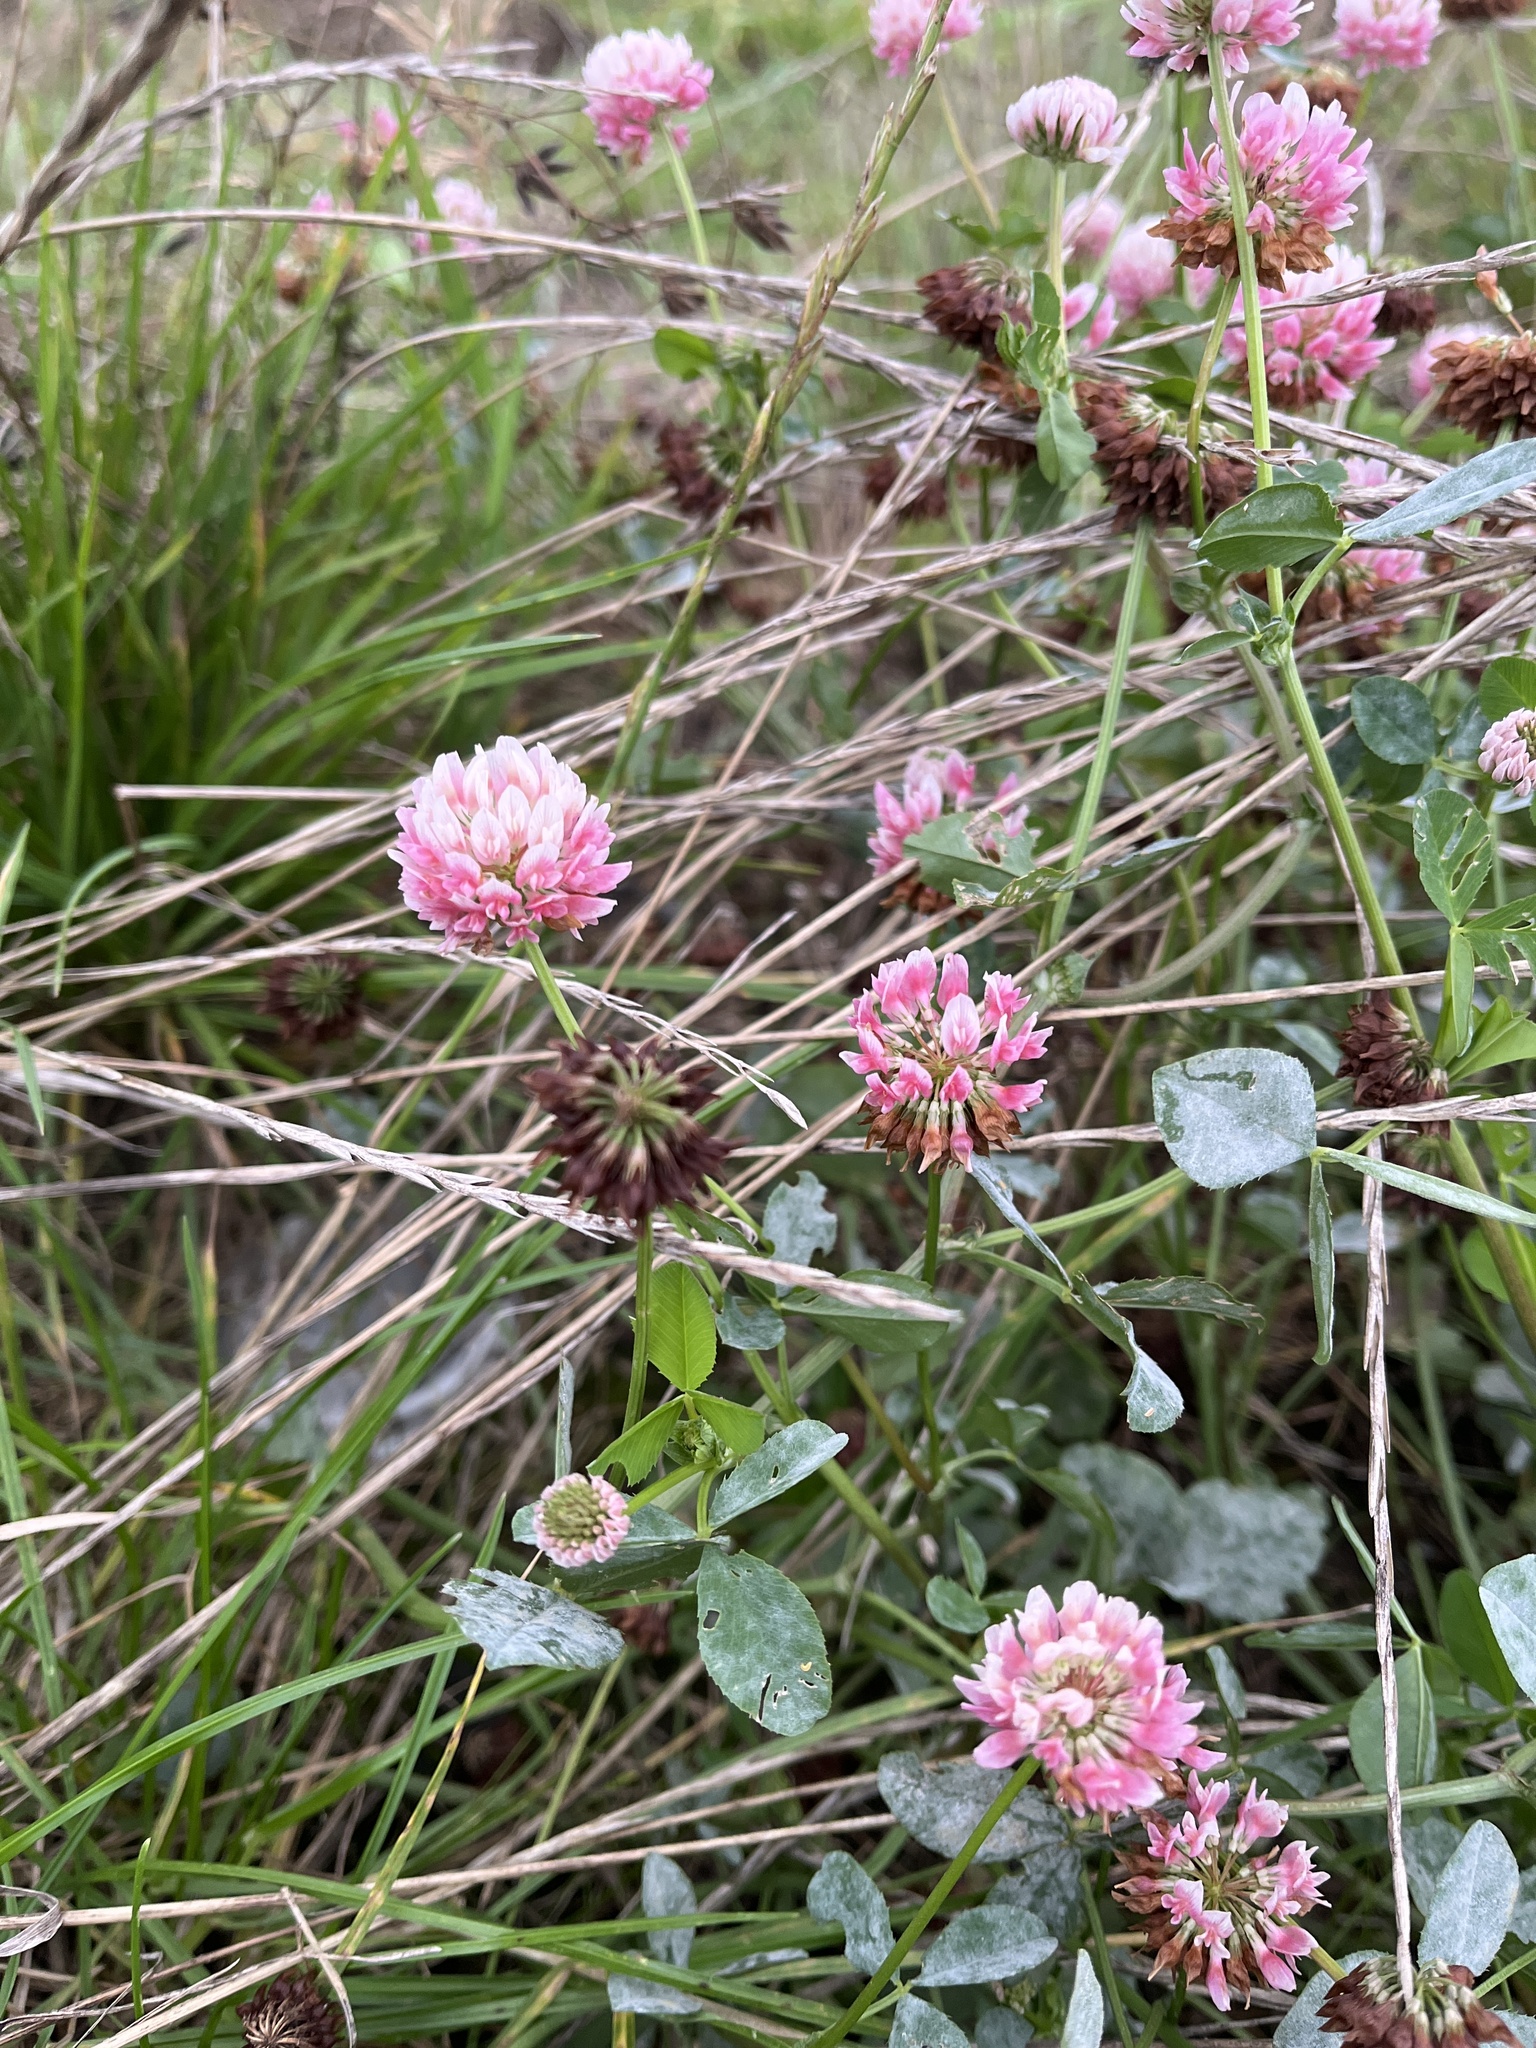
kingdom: Plantae
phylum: Tracheophyta
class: Magnoliopsida
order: Fabales
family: Fabaceae
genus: Trifolium
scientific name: Trifolium hybridum
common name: Alsike clover
